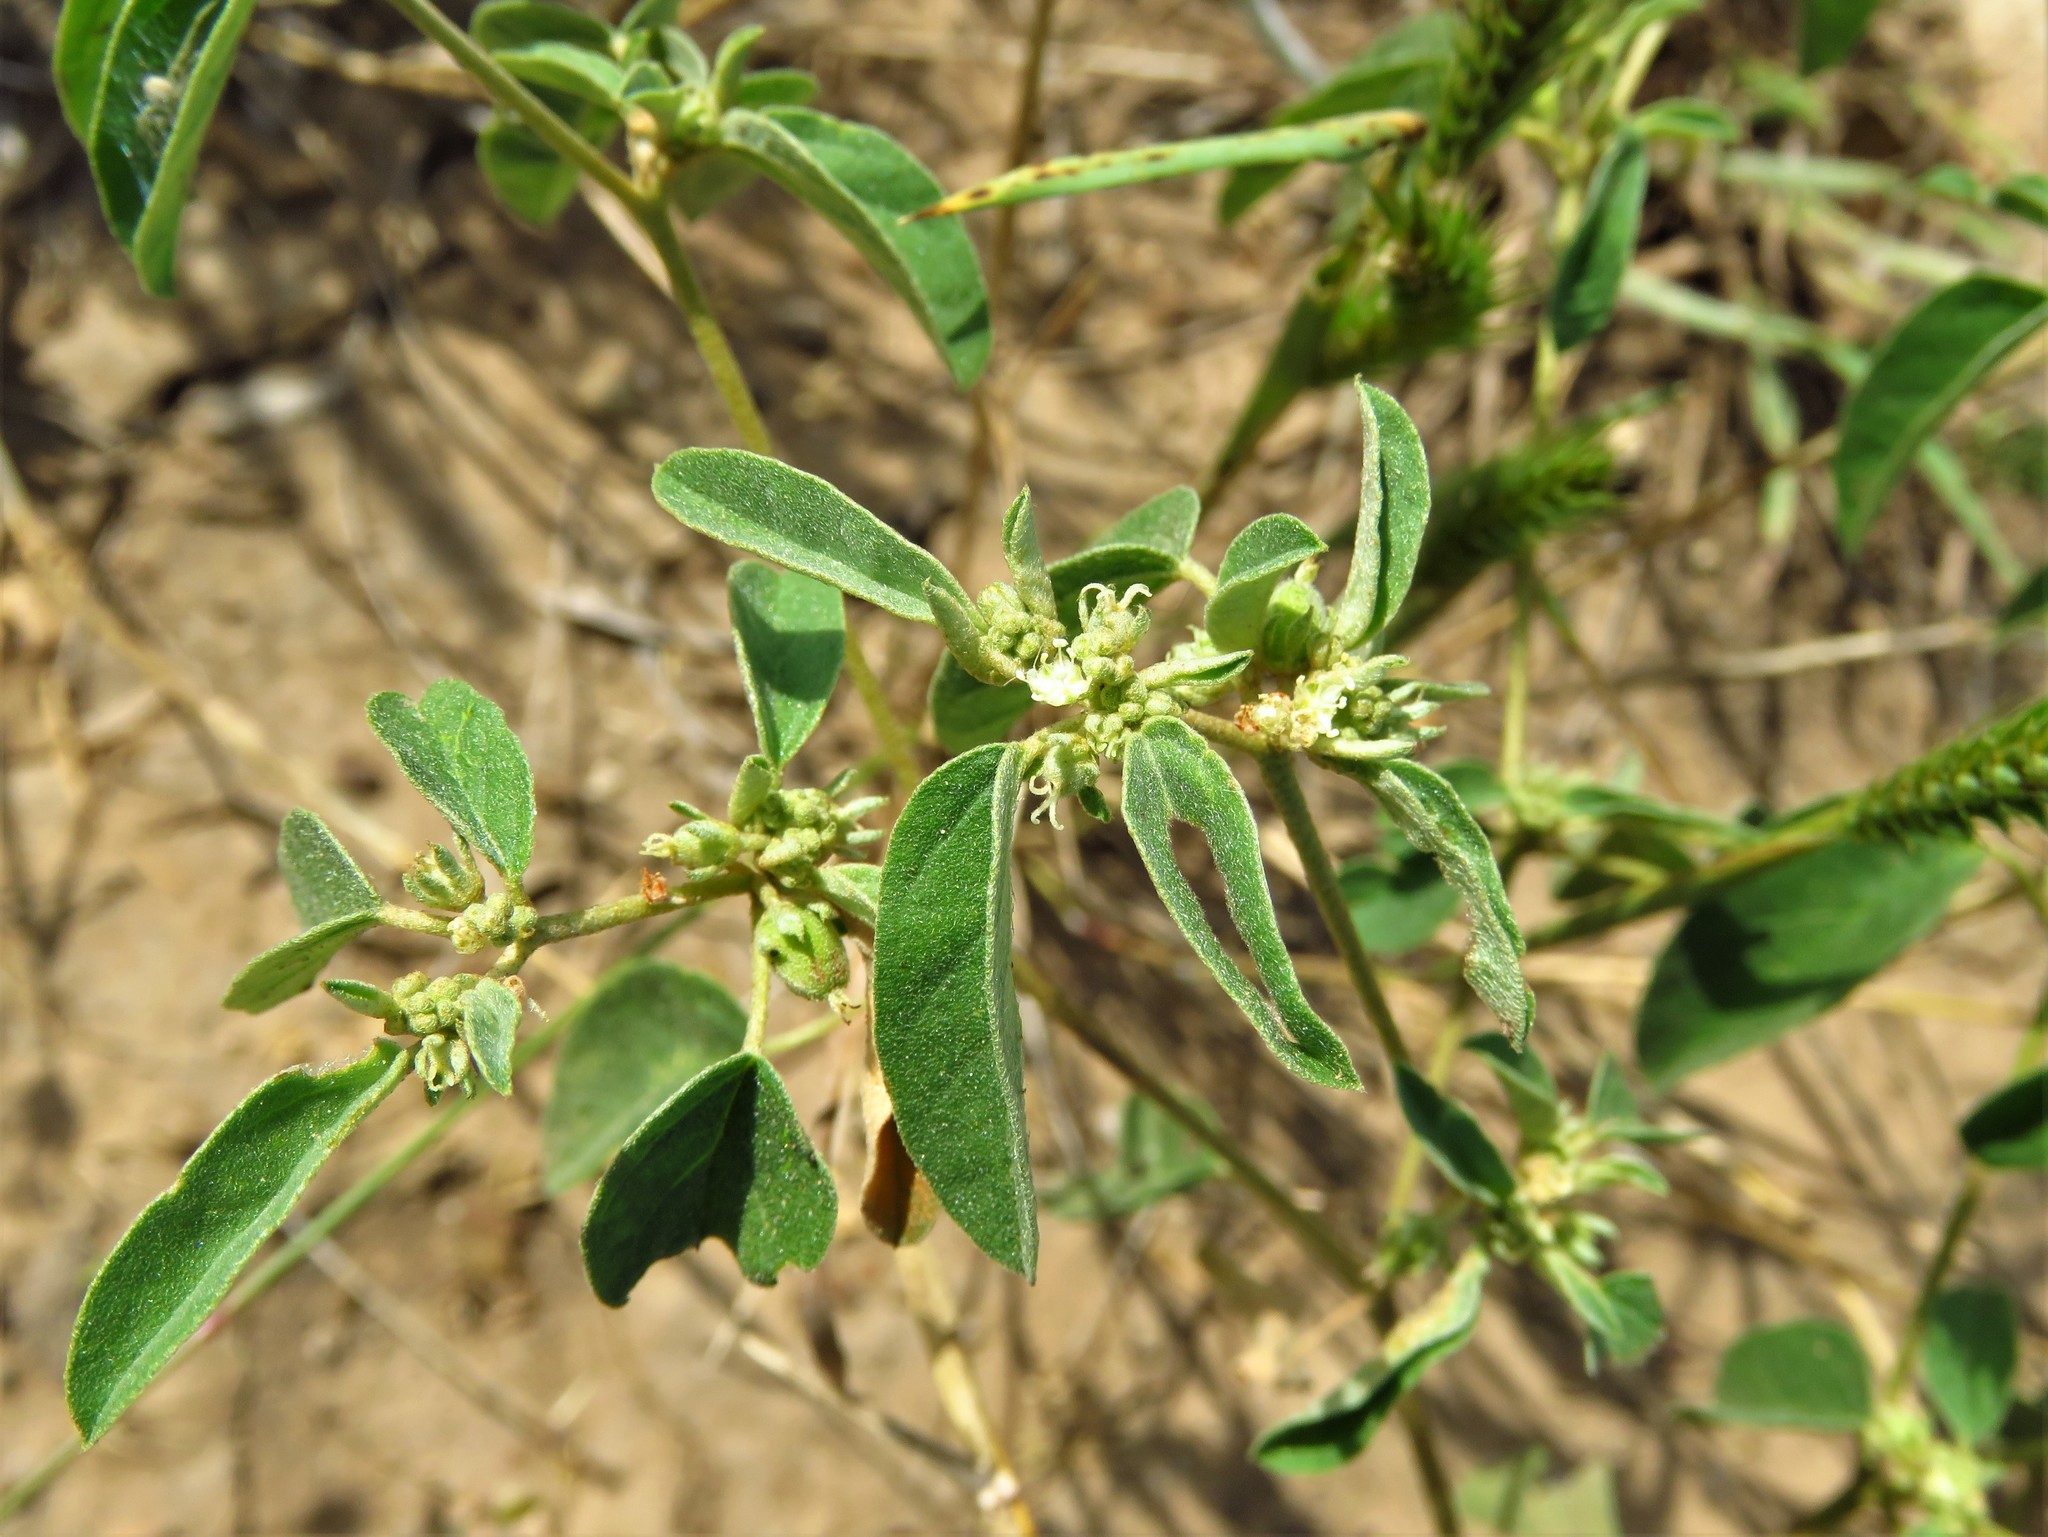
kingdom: Plantae
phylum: Tracheophyta
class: Magnoliopsida
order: Malpighiales
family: Euphorbiaceae
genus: Croton
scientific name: Croton monanthogynus
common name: One-seed croton
